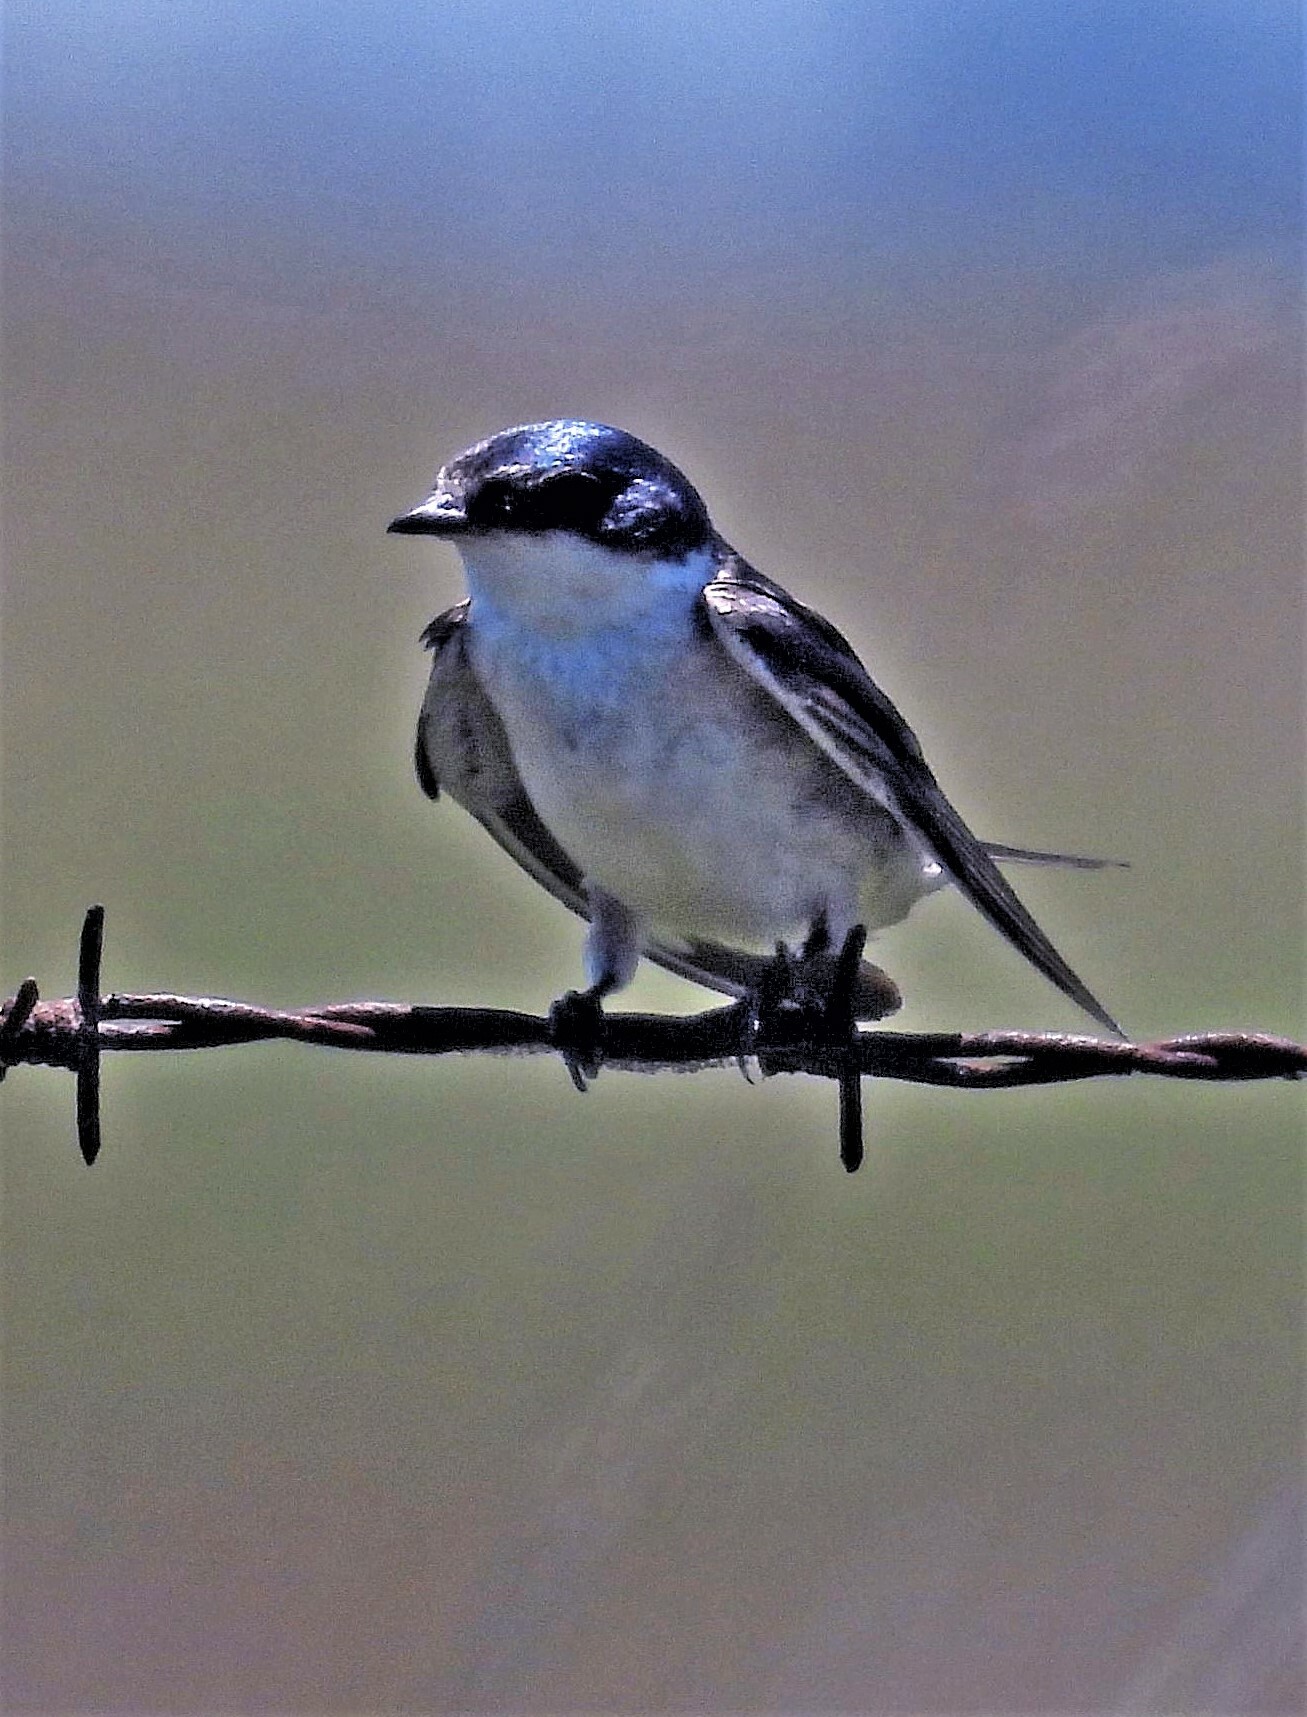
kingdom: Animalia
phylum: Chordata
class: Aves
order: Passeriformes
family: Hirundinidae
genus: Tachycineta
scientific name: Tachycineta leucorrhoa
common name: White-rumped swallow
